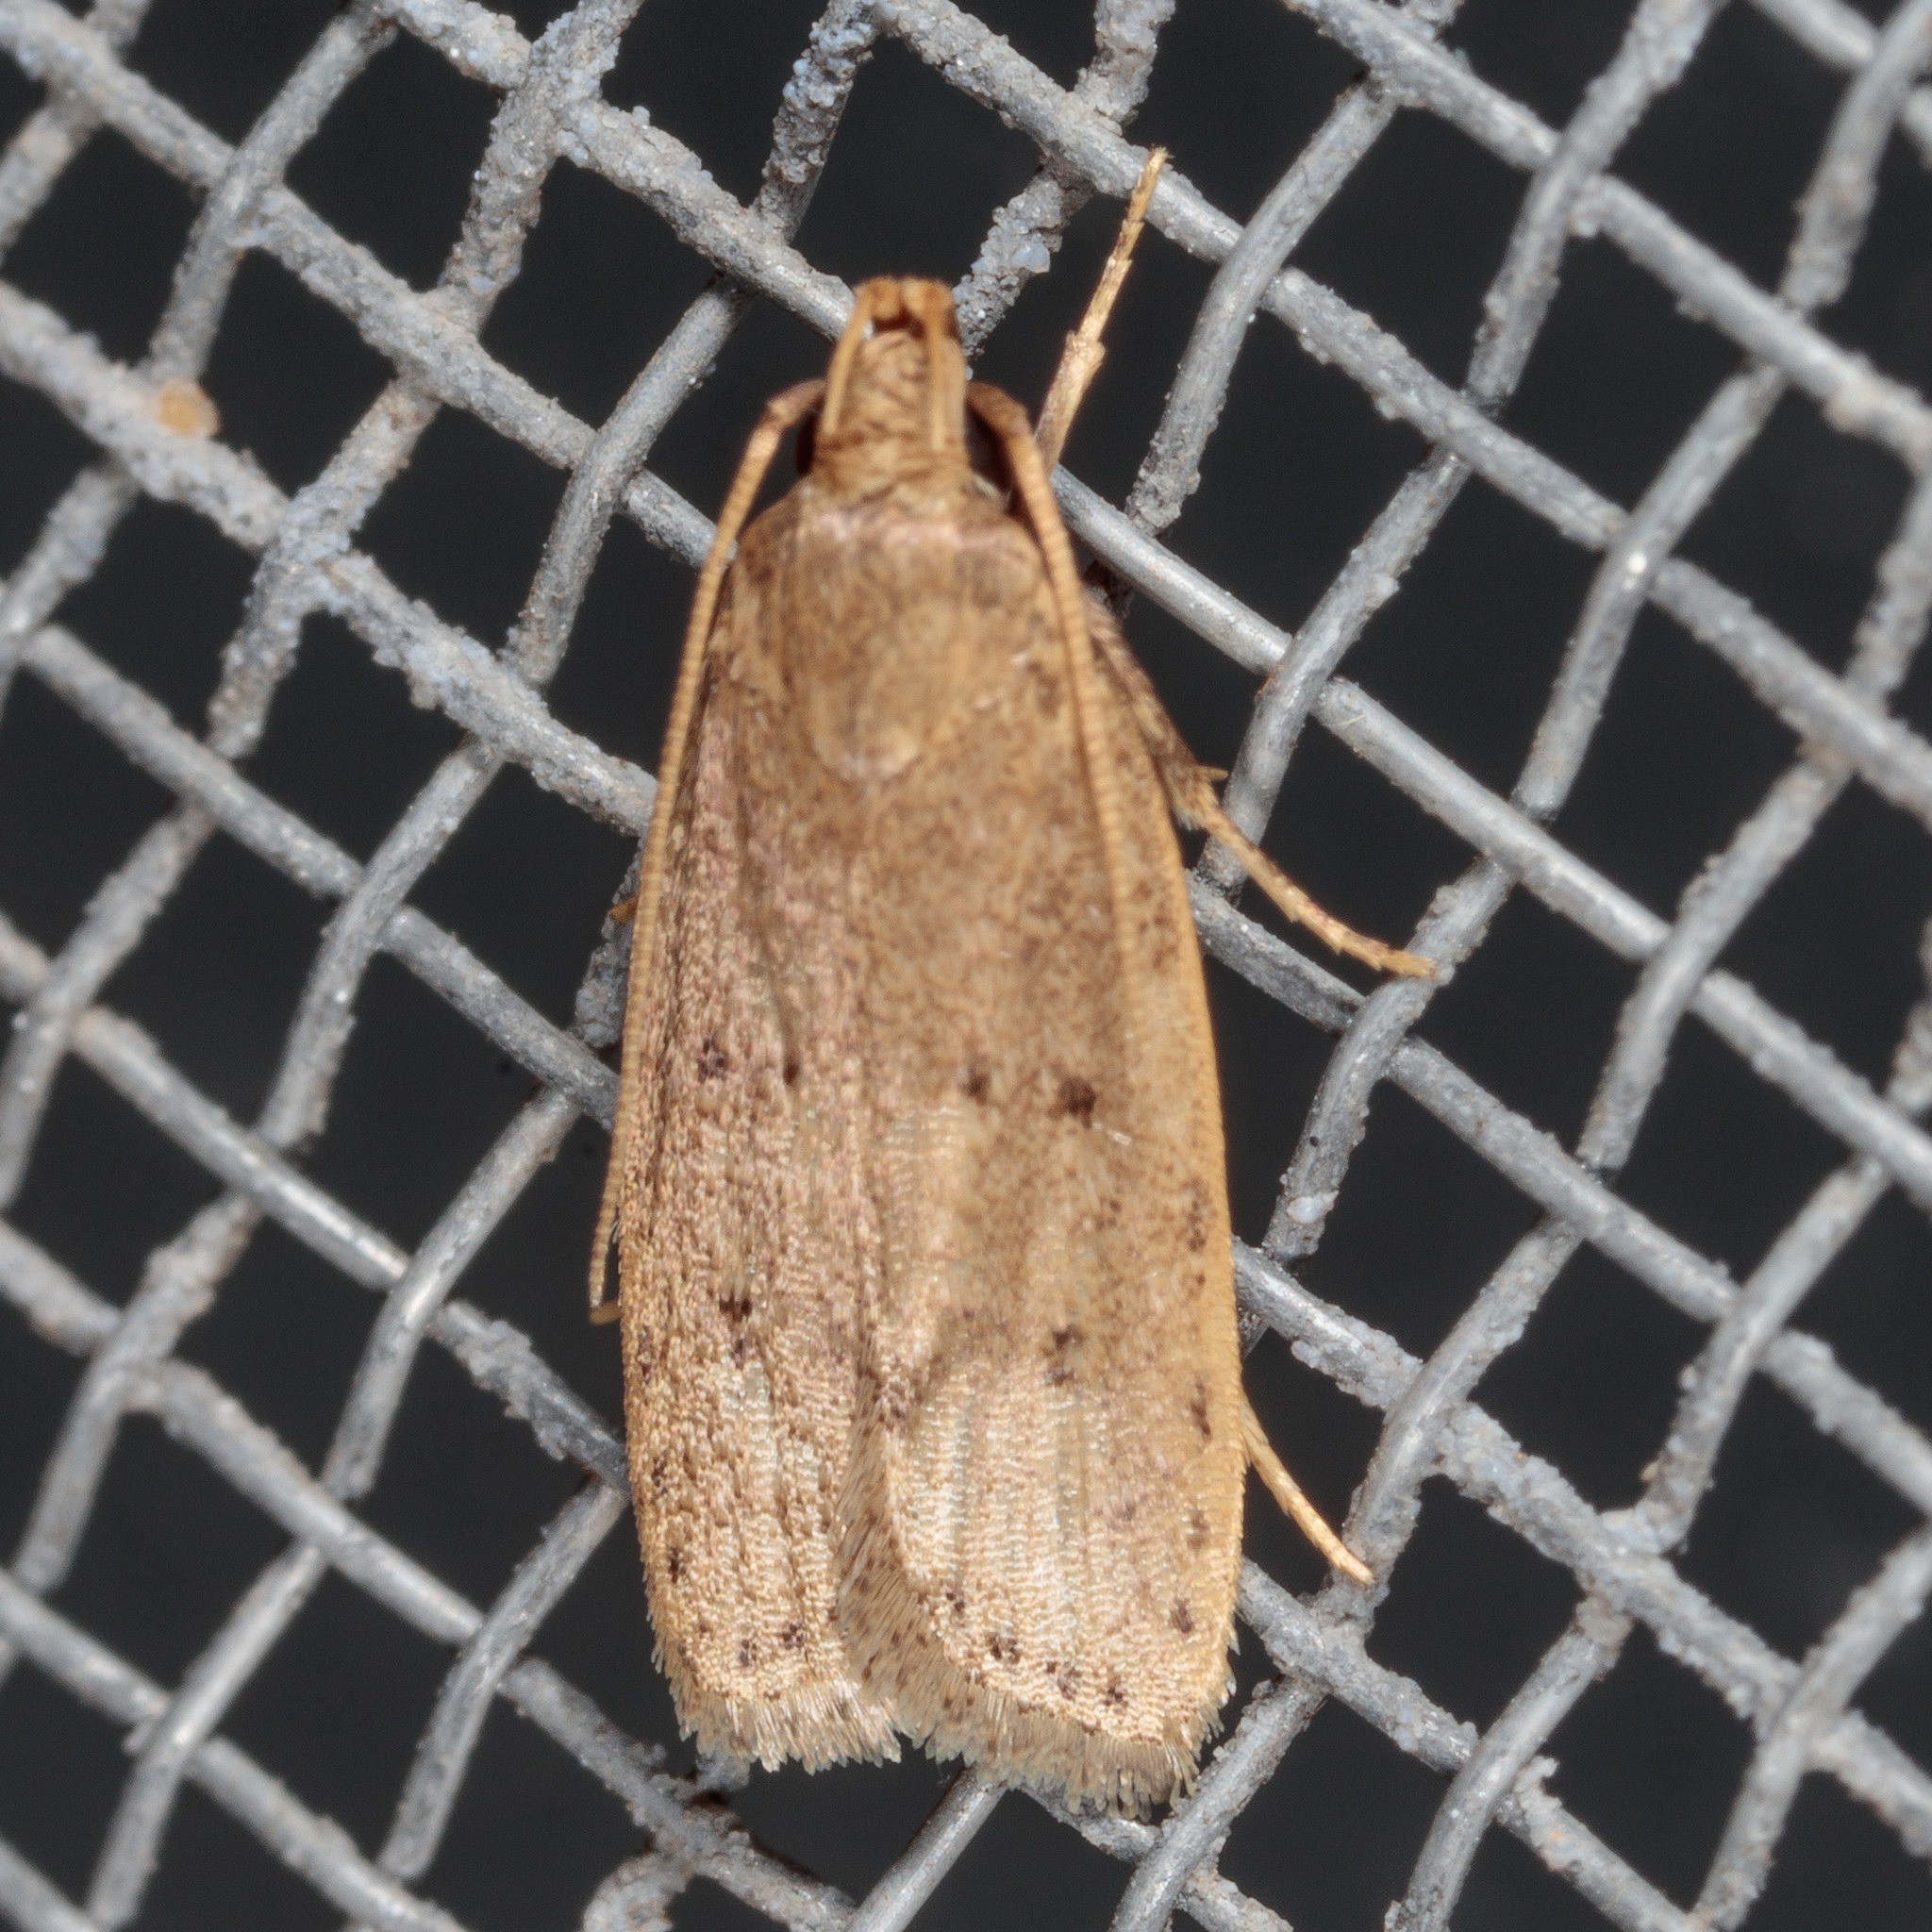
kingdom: Animalia
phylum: Arthropoda
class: Insecta
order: Lepidoptera
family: Autostichidae
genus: Autosticha
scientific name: Autosticha kyotensis
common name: Kyoto moth
